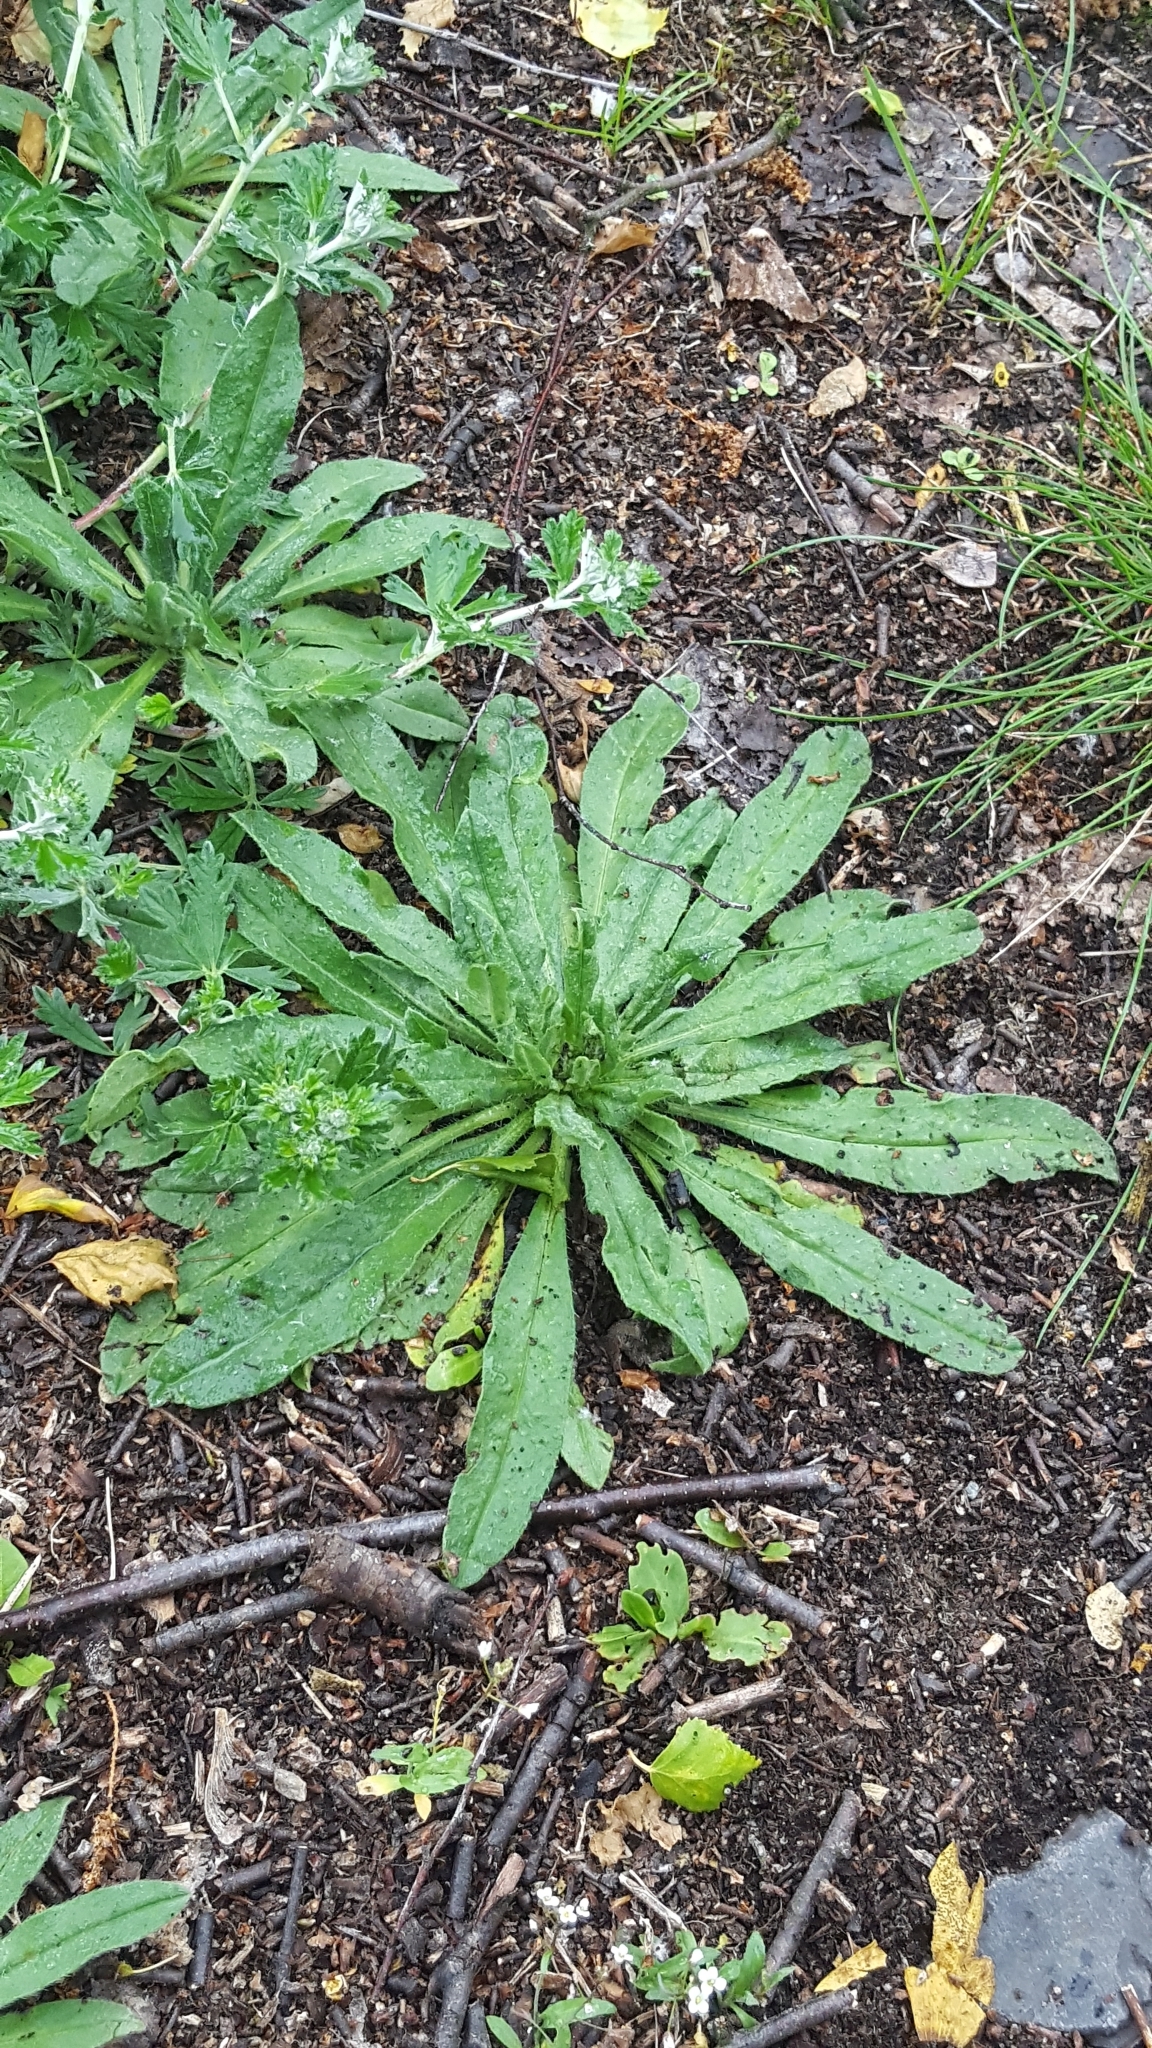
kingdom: Plantae
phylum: Tracheophyta
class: Magnoliopsida
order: Rosales
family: Rosaceae
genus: Potentilla
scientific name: Potentilla argentea
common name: Hoary cinquefoil
